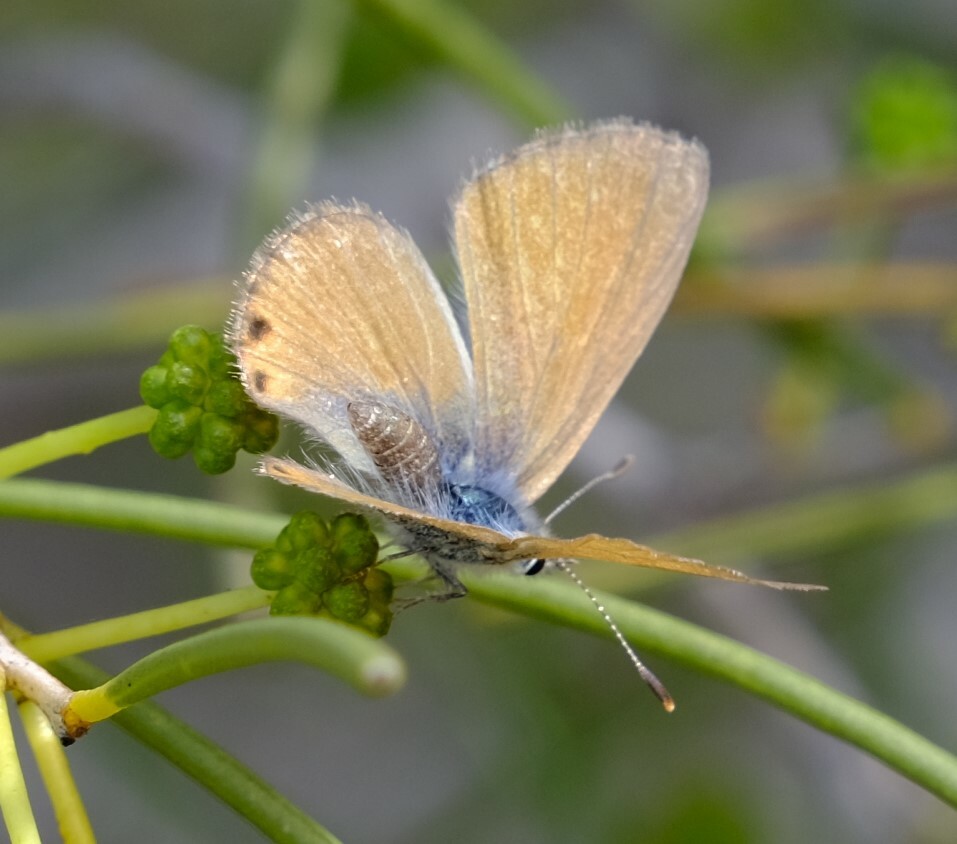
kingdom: Animalia
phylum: Arthropoda
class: Insecta
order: Lepidoptera
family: Lycaenidae
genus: Nacaduba
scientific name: Nacaduba biocellata
